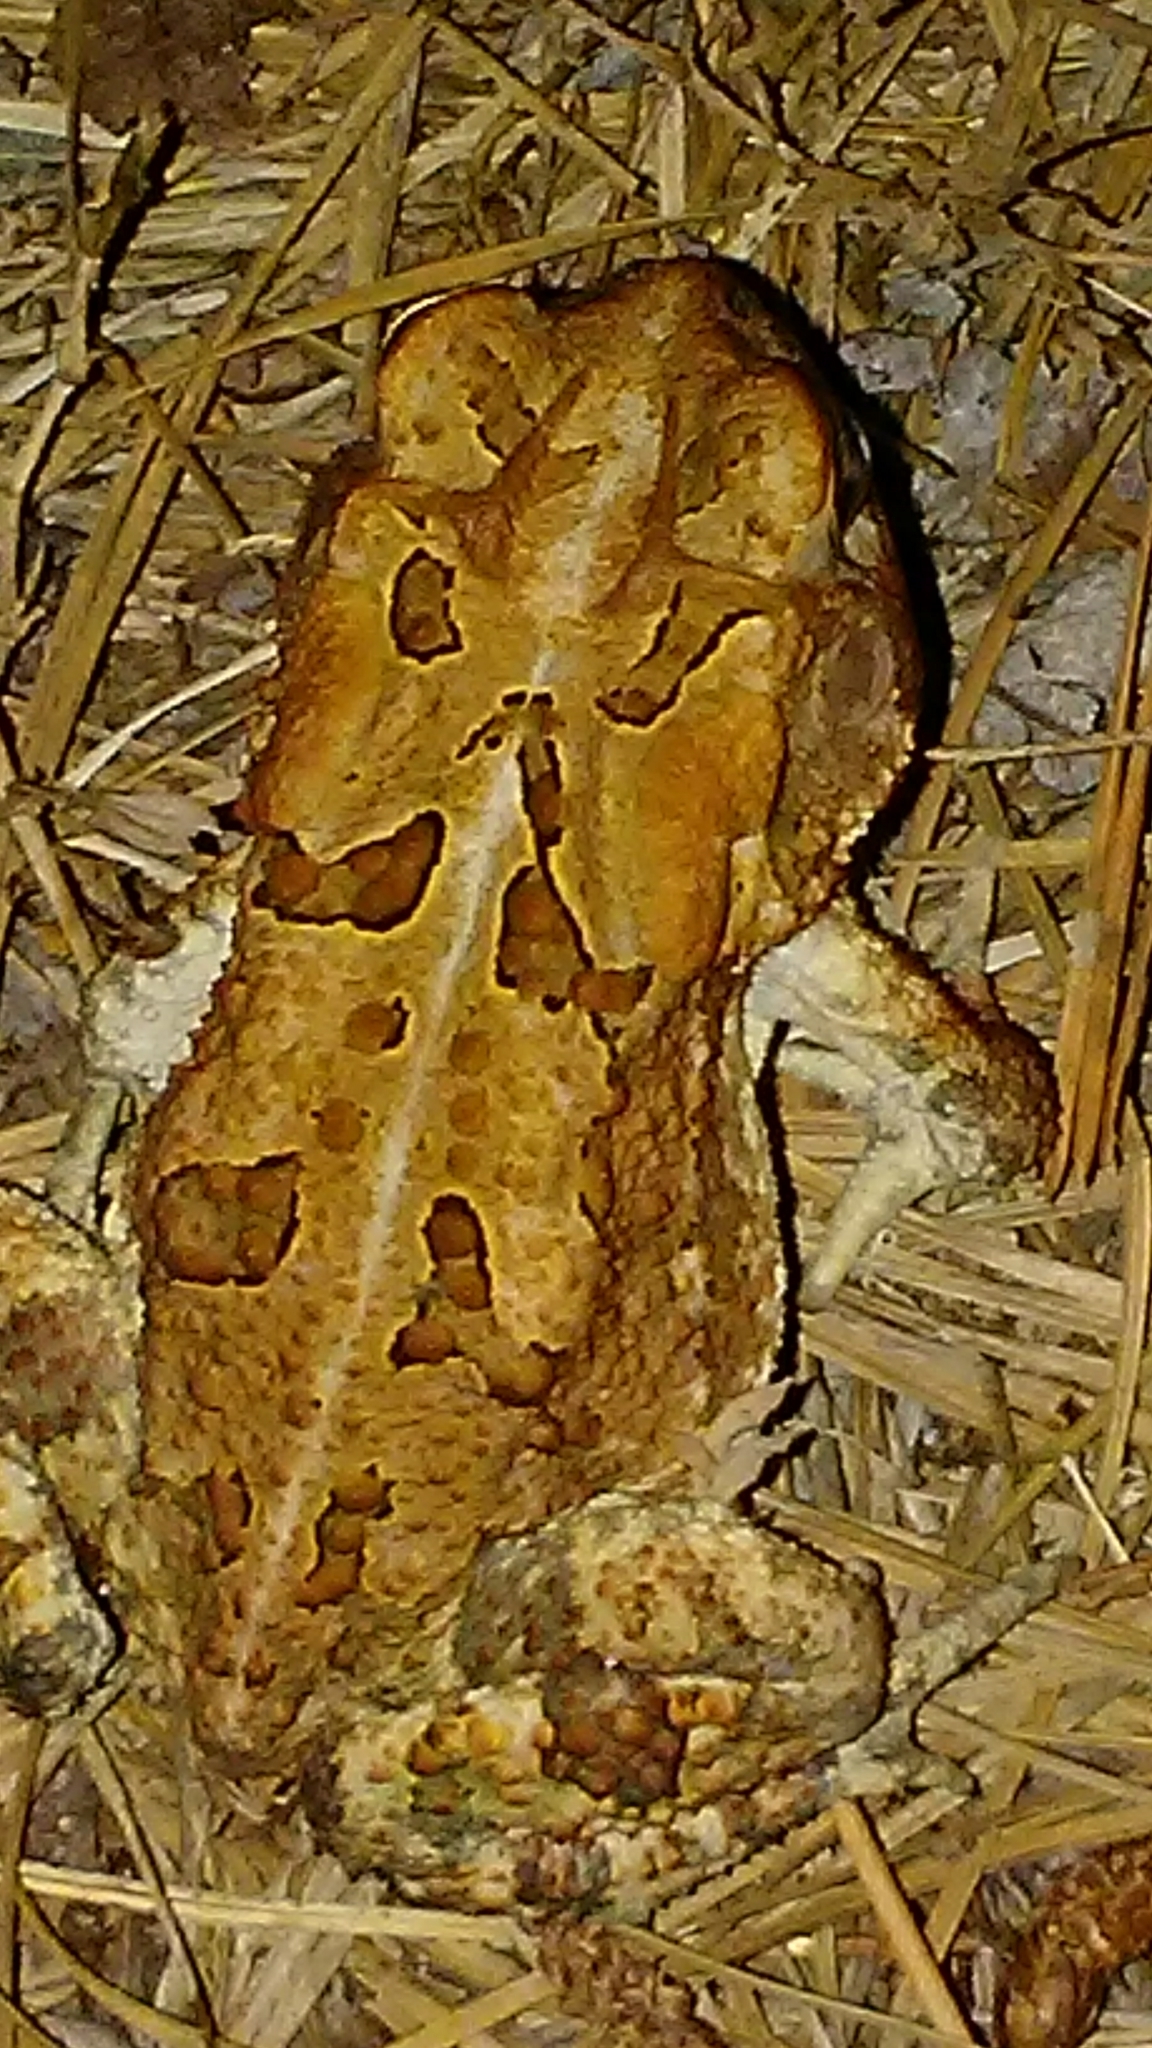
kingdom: Animalia
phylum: Chordata
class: Amphibia
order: Anura
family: Bufonidae
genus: Anaxyrus
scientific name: Anaxyrus terrestris
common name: Southern toad
